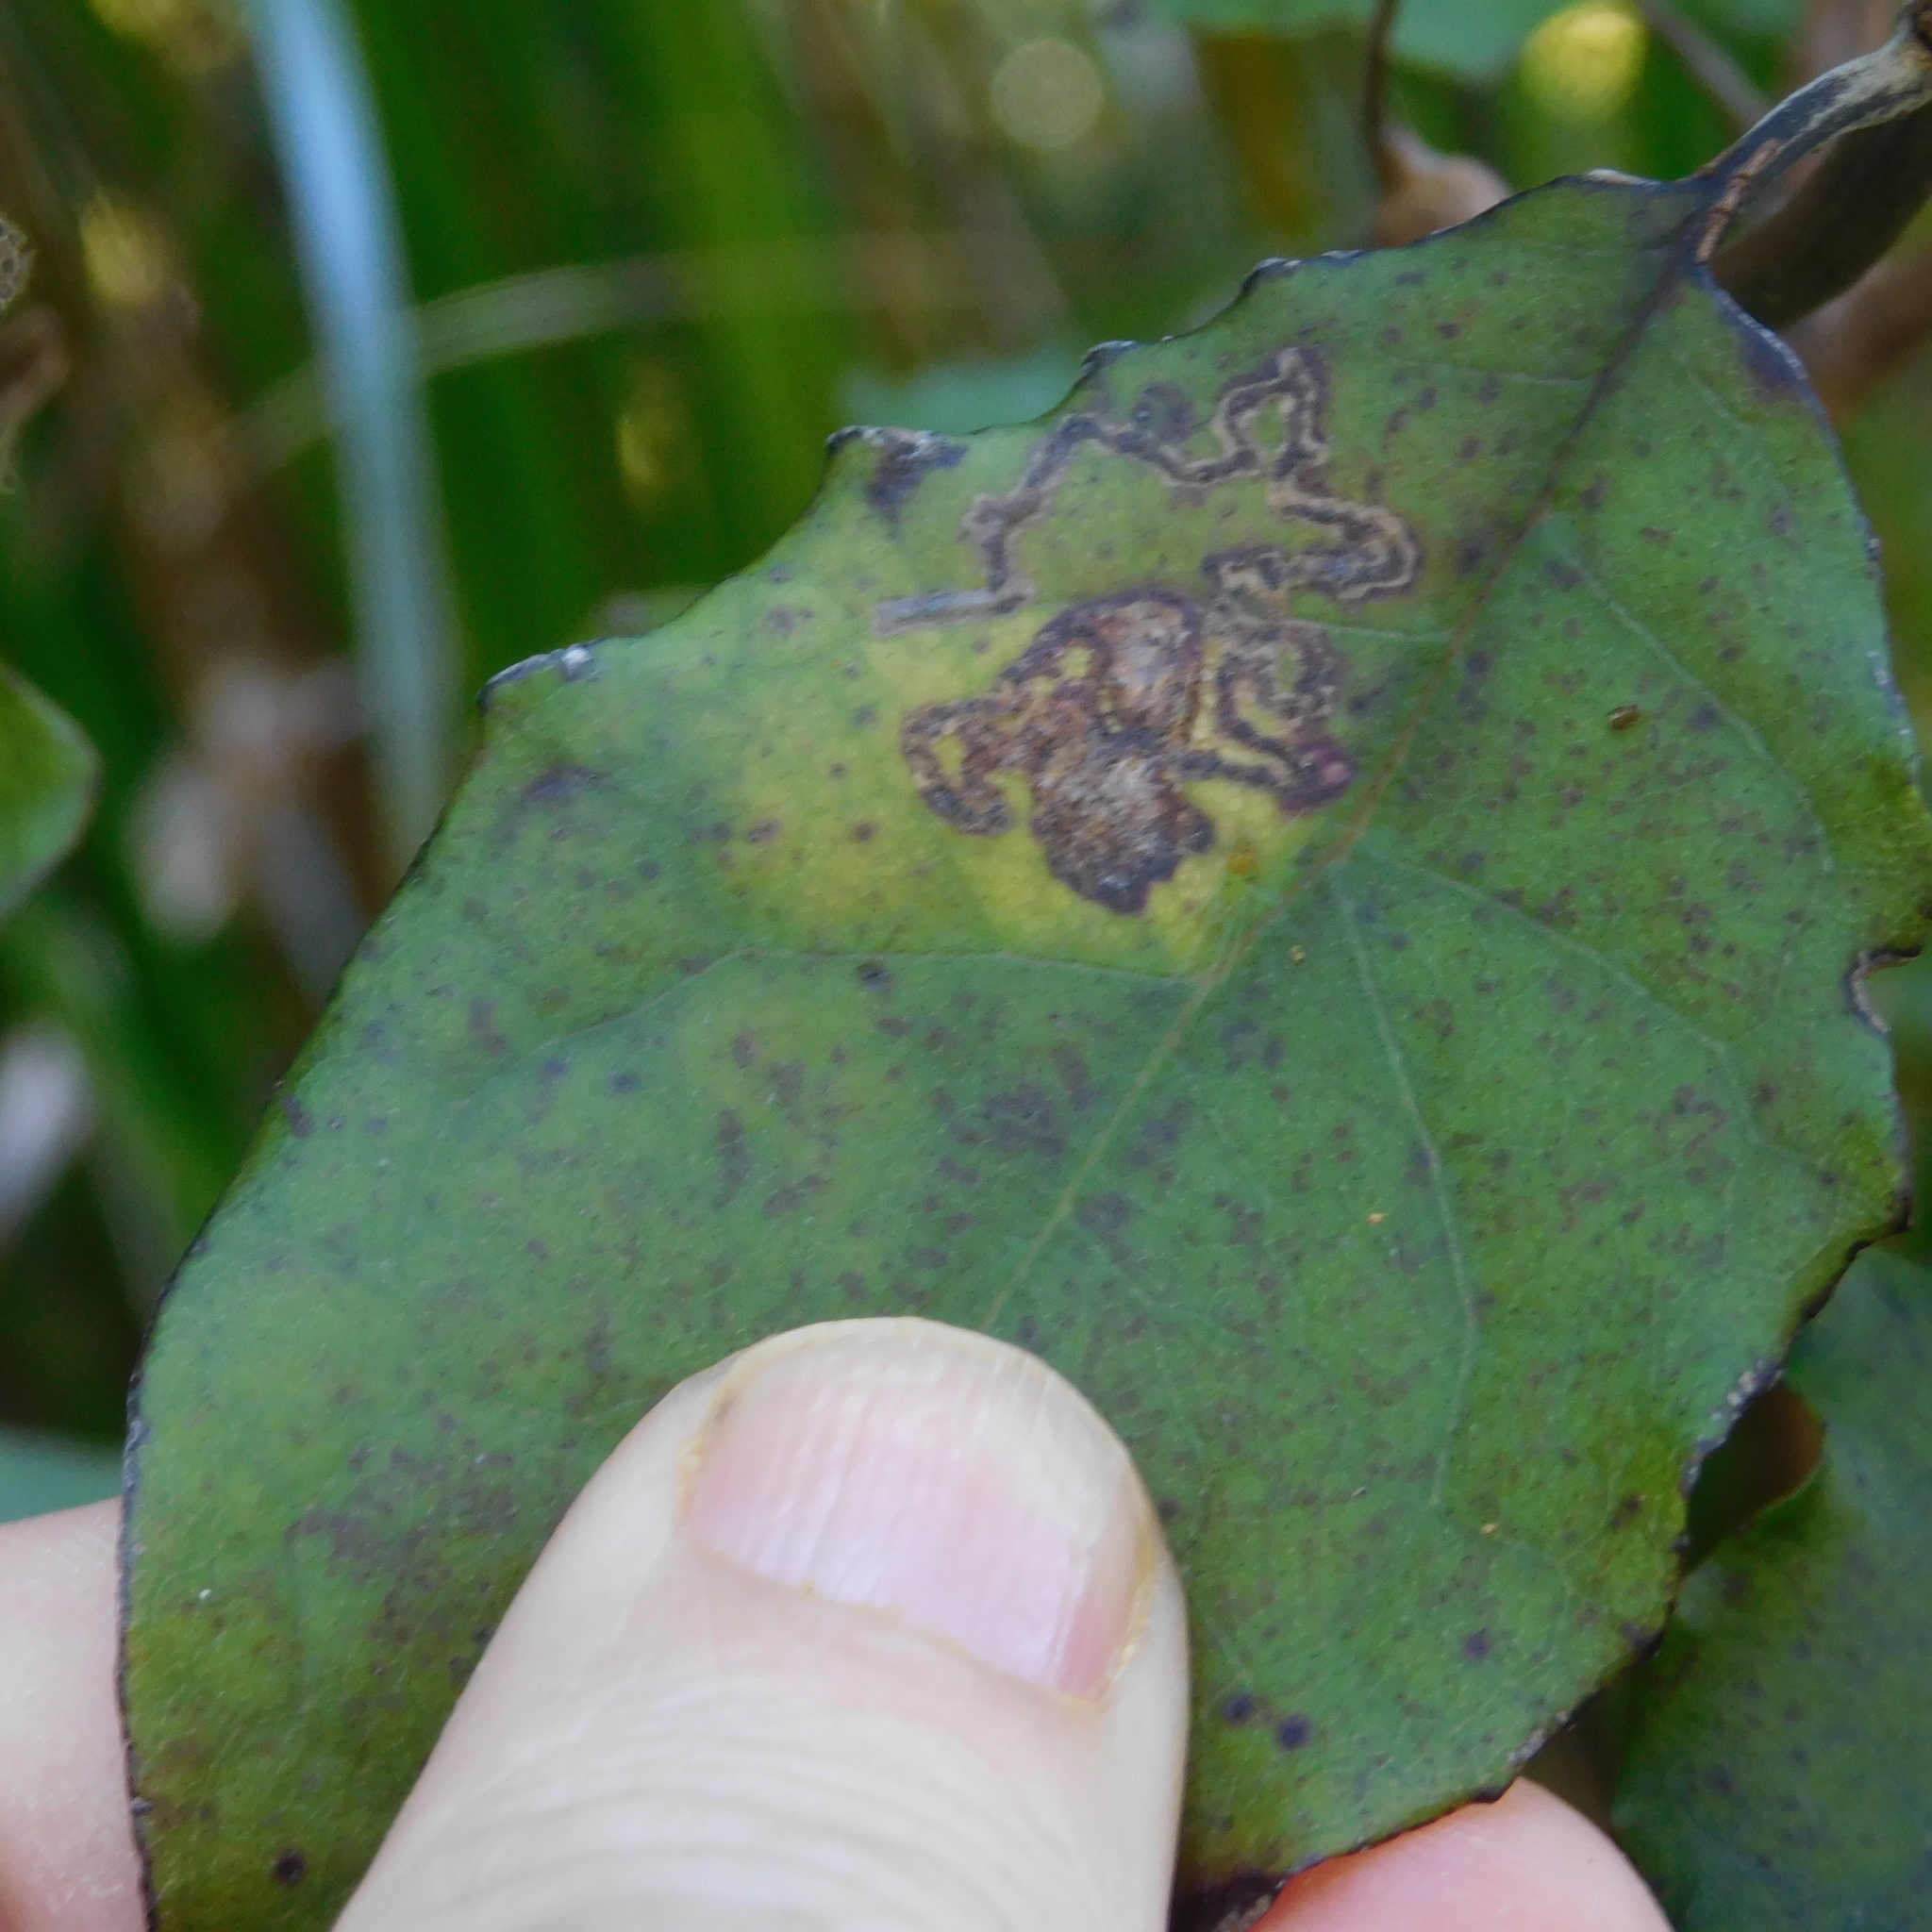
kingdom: Animalia
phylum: Arthropoda
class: Insecta
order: Lepidoptera
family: Gelechiidae
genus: Epiphthora
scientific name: Epiphthora melanombra
